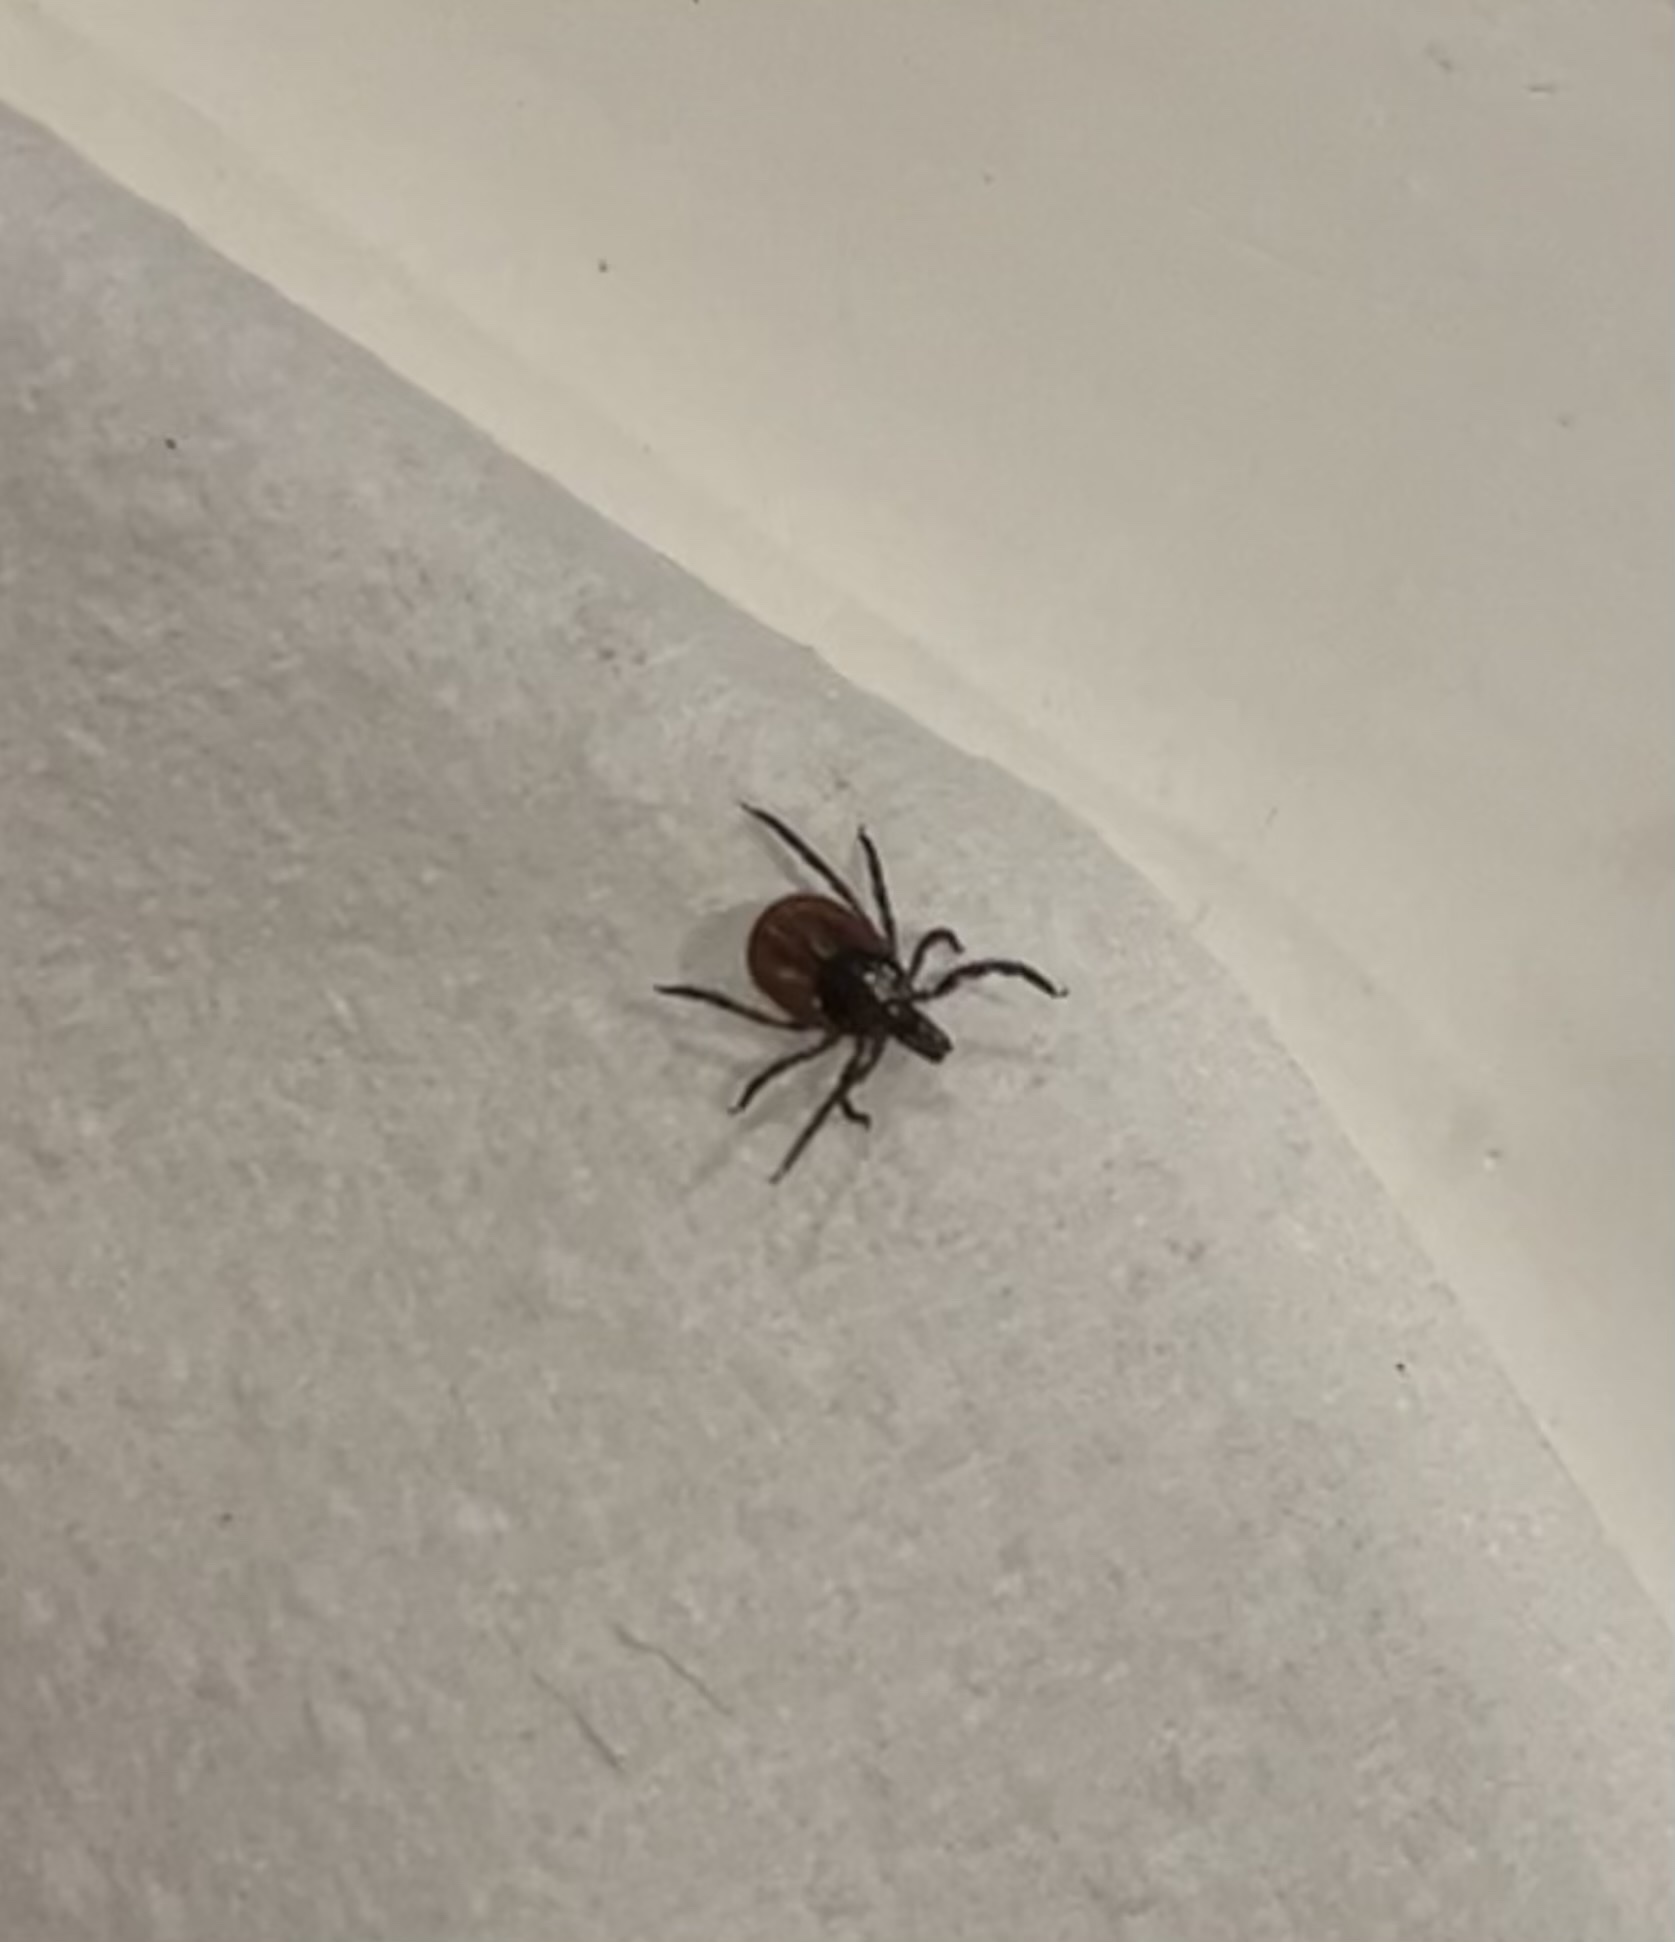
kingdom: Animalia
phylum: Arthropoda
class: Arachnida
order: Ixodida
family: Ixodidae
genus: Ixodes
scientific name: Ixodes scapularis
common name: Black legged tick
